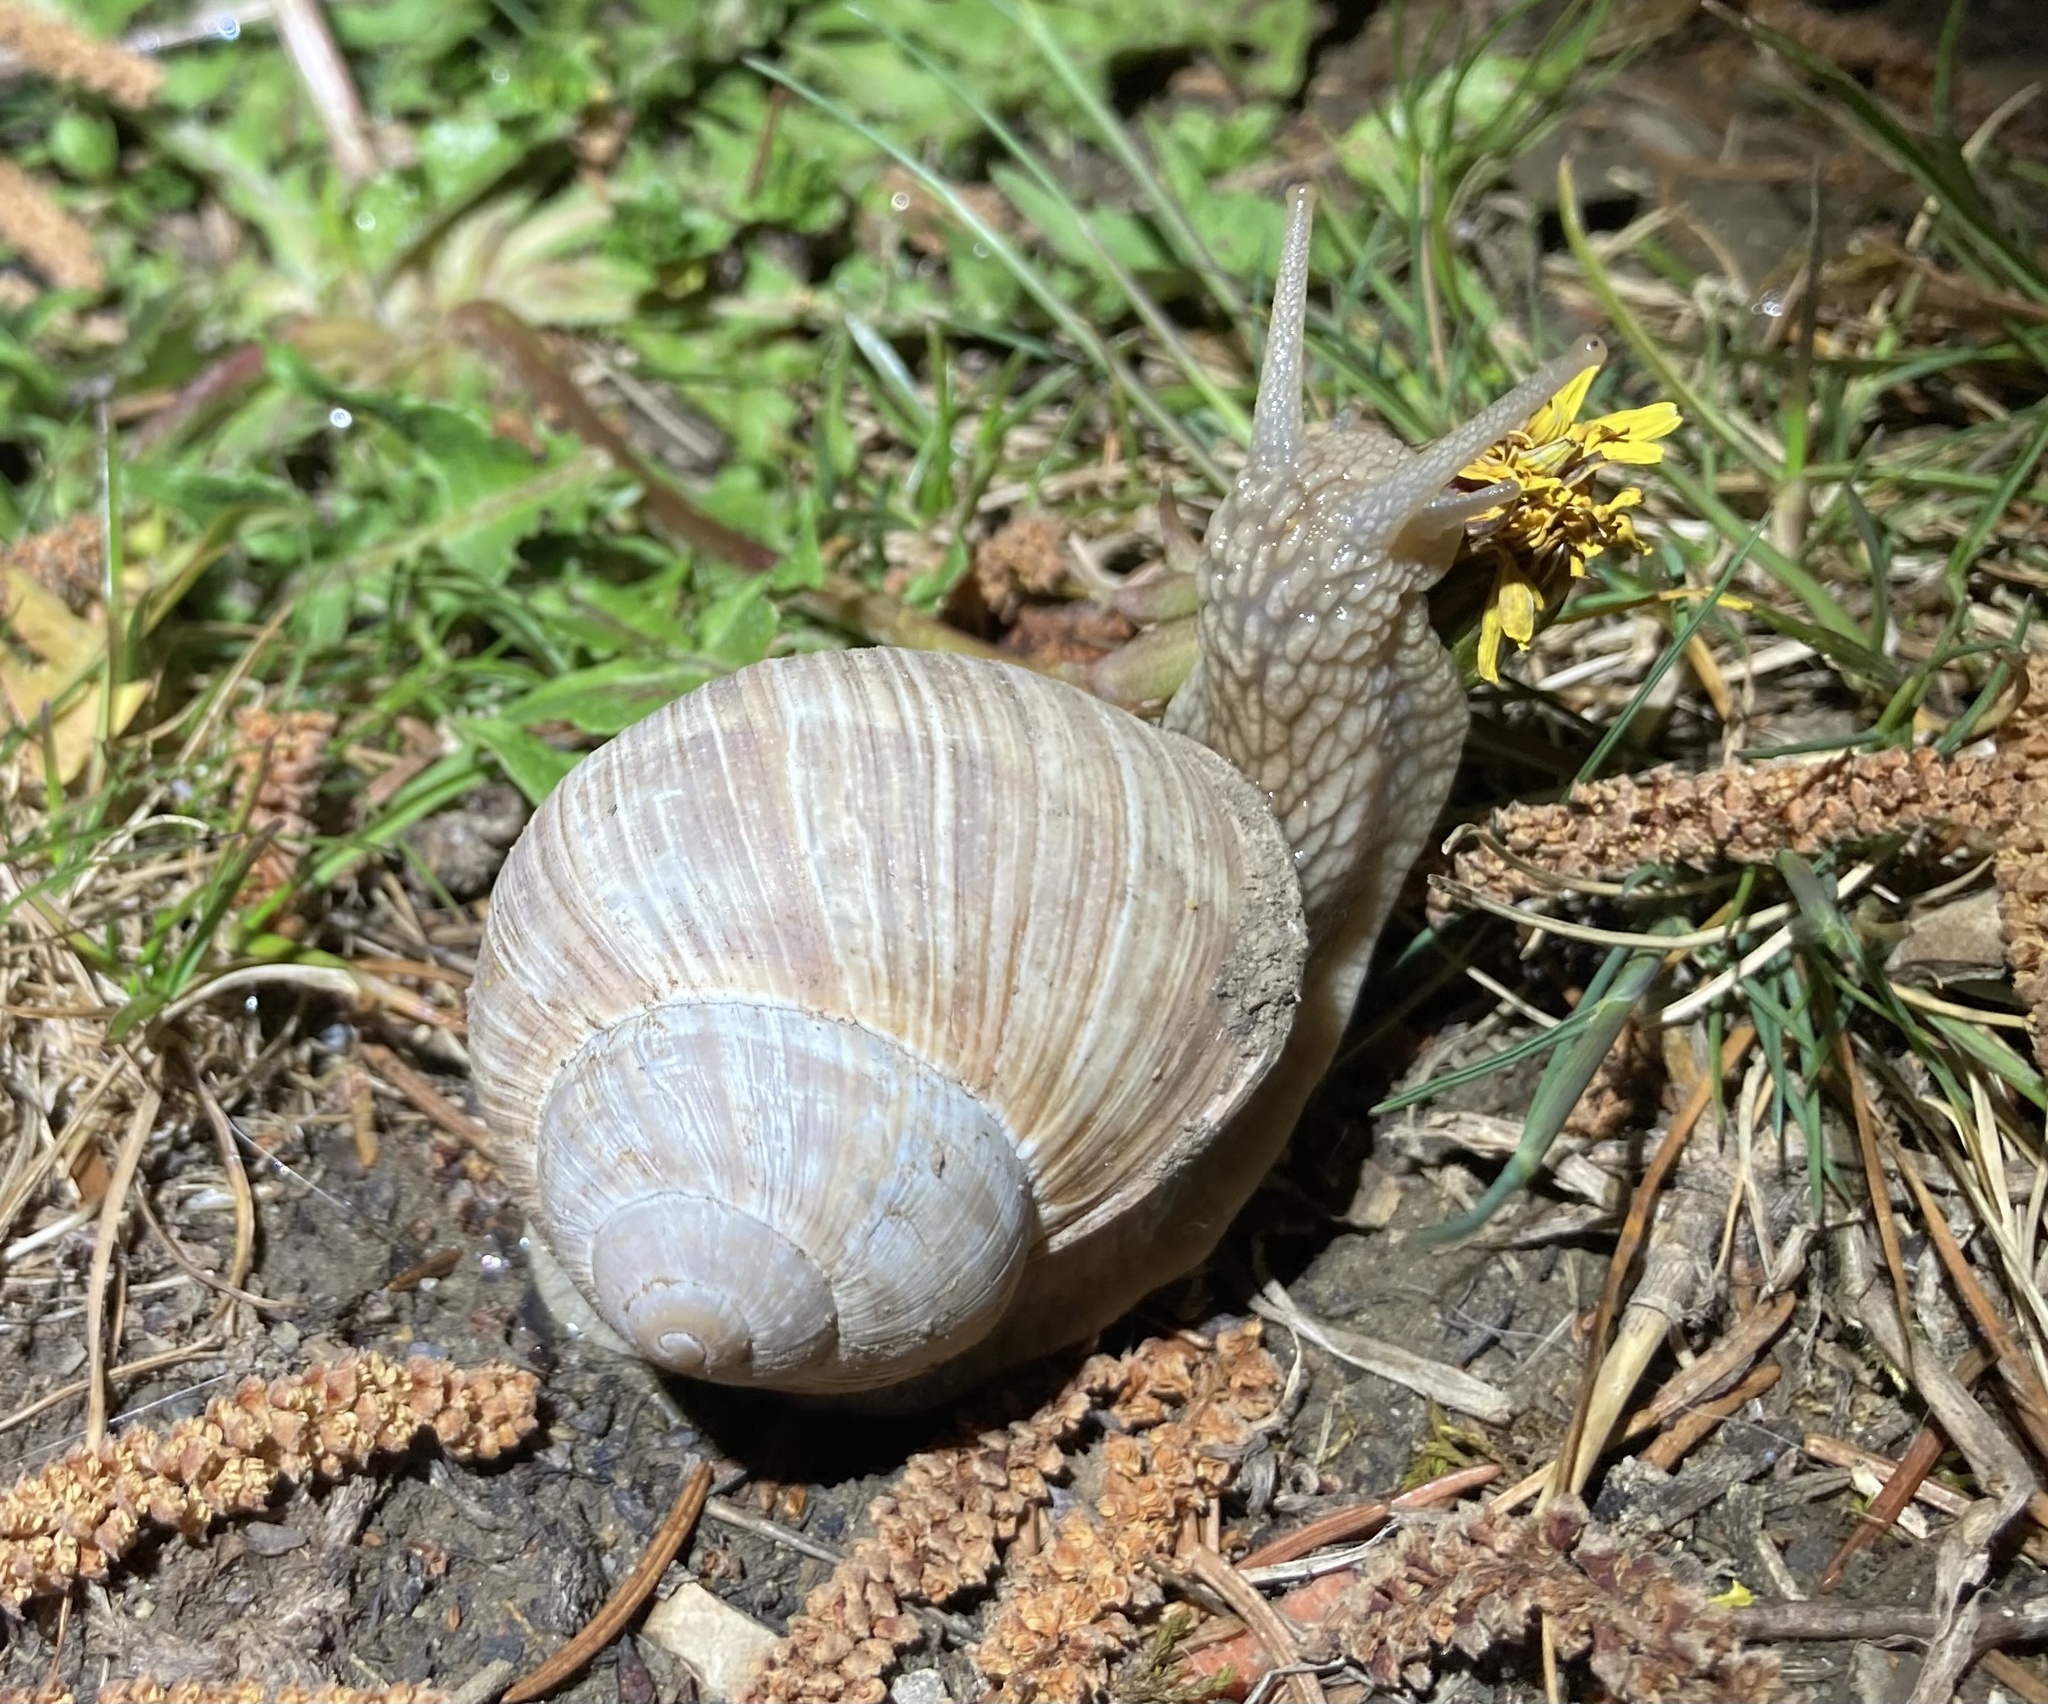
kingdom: Animalia
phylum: Mollusca
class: Gastropoda
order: Stylommatophora
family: Helicidae
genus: Helix
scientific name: Helix pomatia
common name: Roman snail
